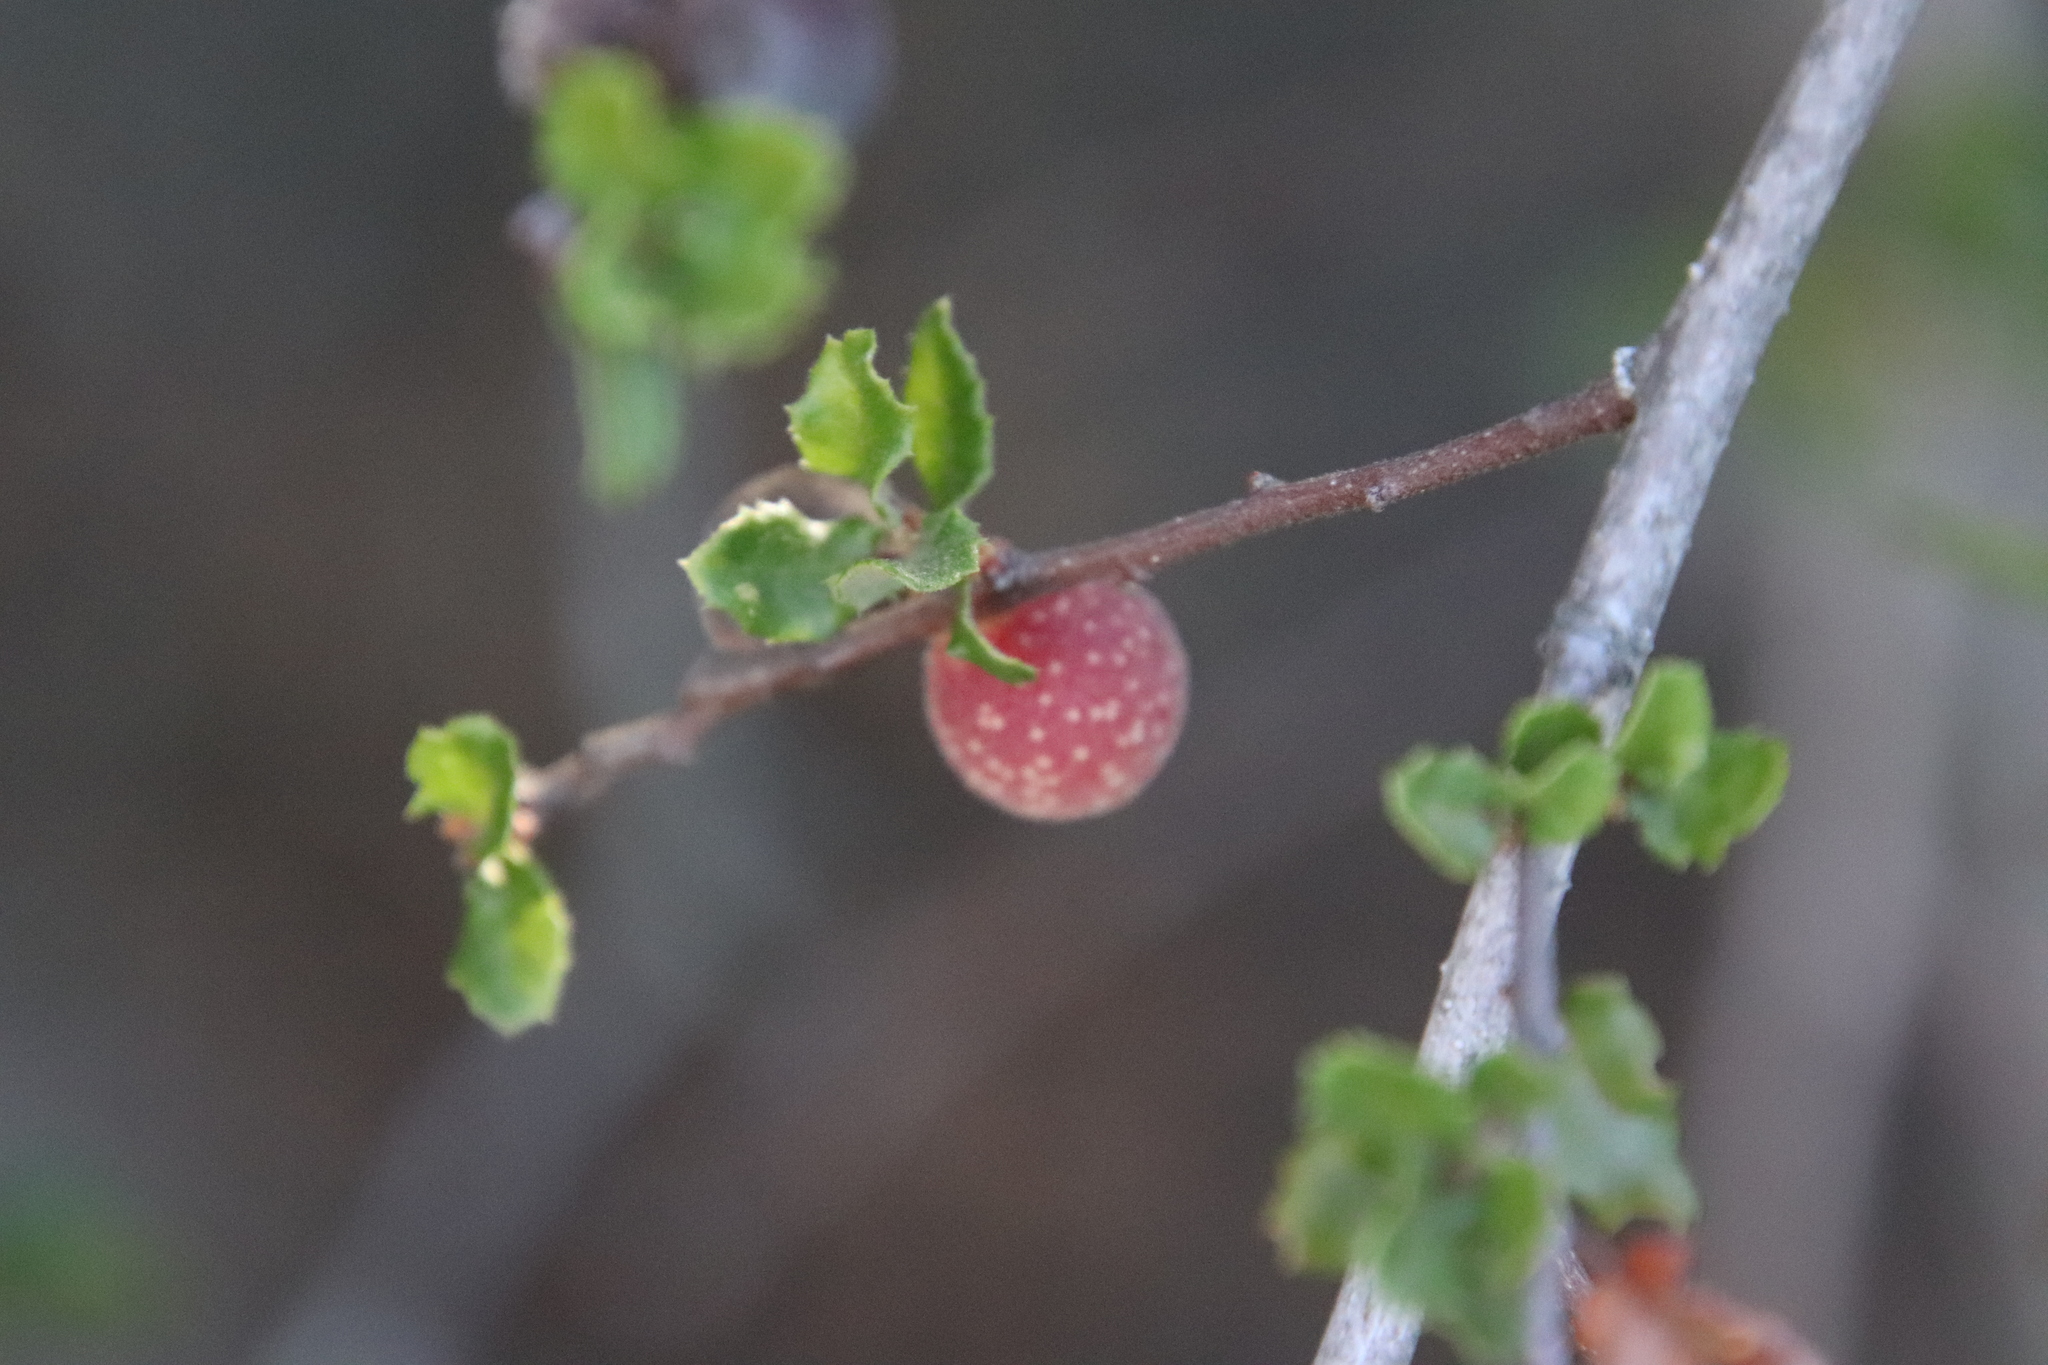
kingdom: Animalia
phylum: Arthropoda
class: Insecta
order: Hymenoptera
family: Cynipidae
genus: Burnettweldia
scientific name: Burnettweldia
